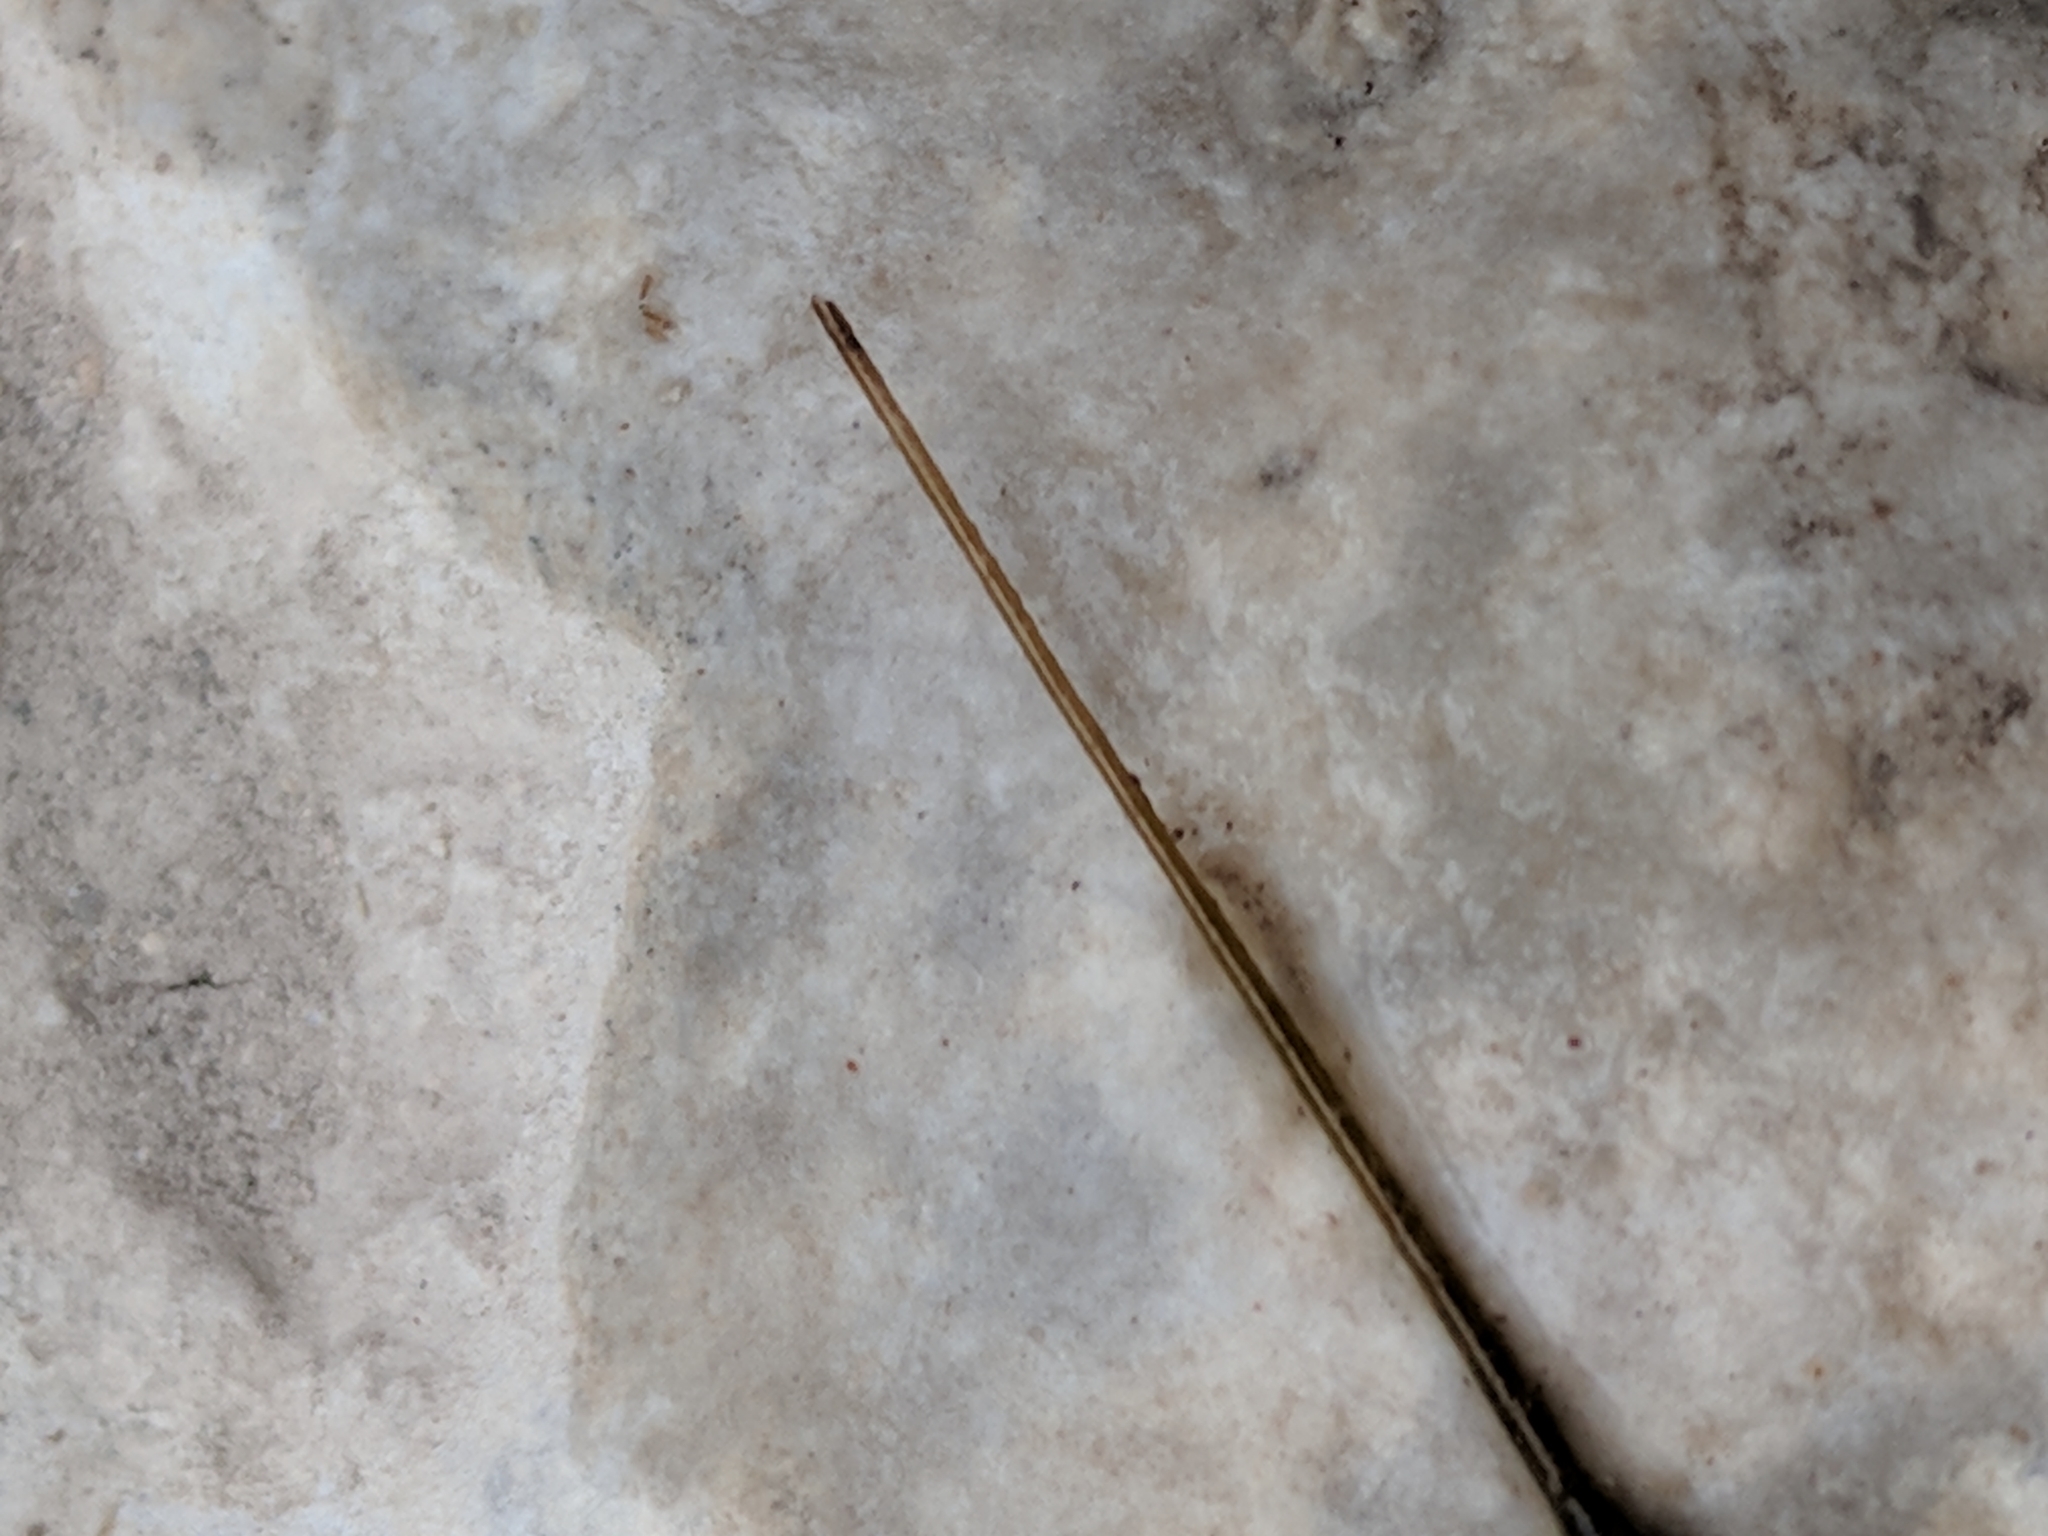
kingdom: Animalia
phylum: Arthropoda
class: Insecta
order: Hemiptera
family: Nepidae
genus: Ranatra
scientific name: Ranatra
